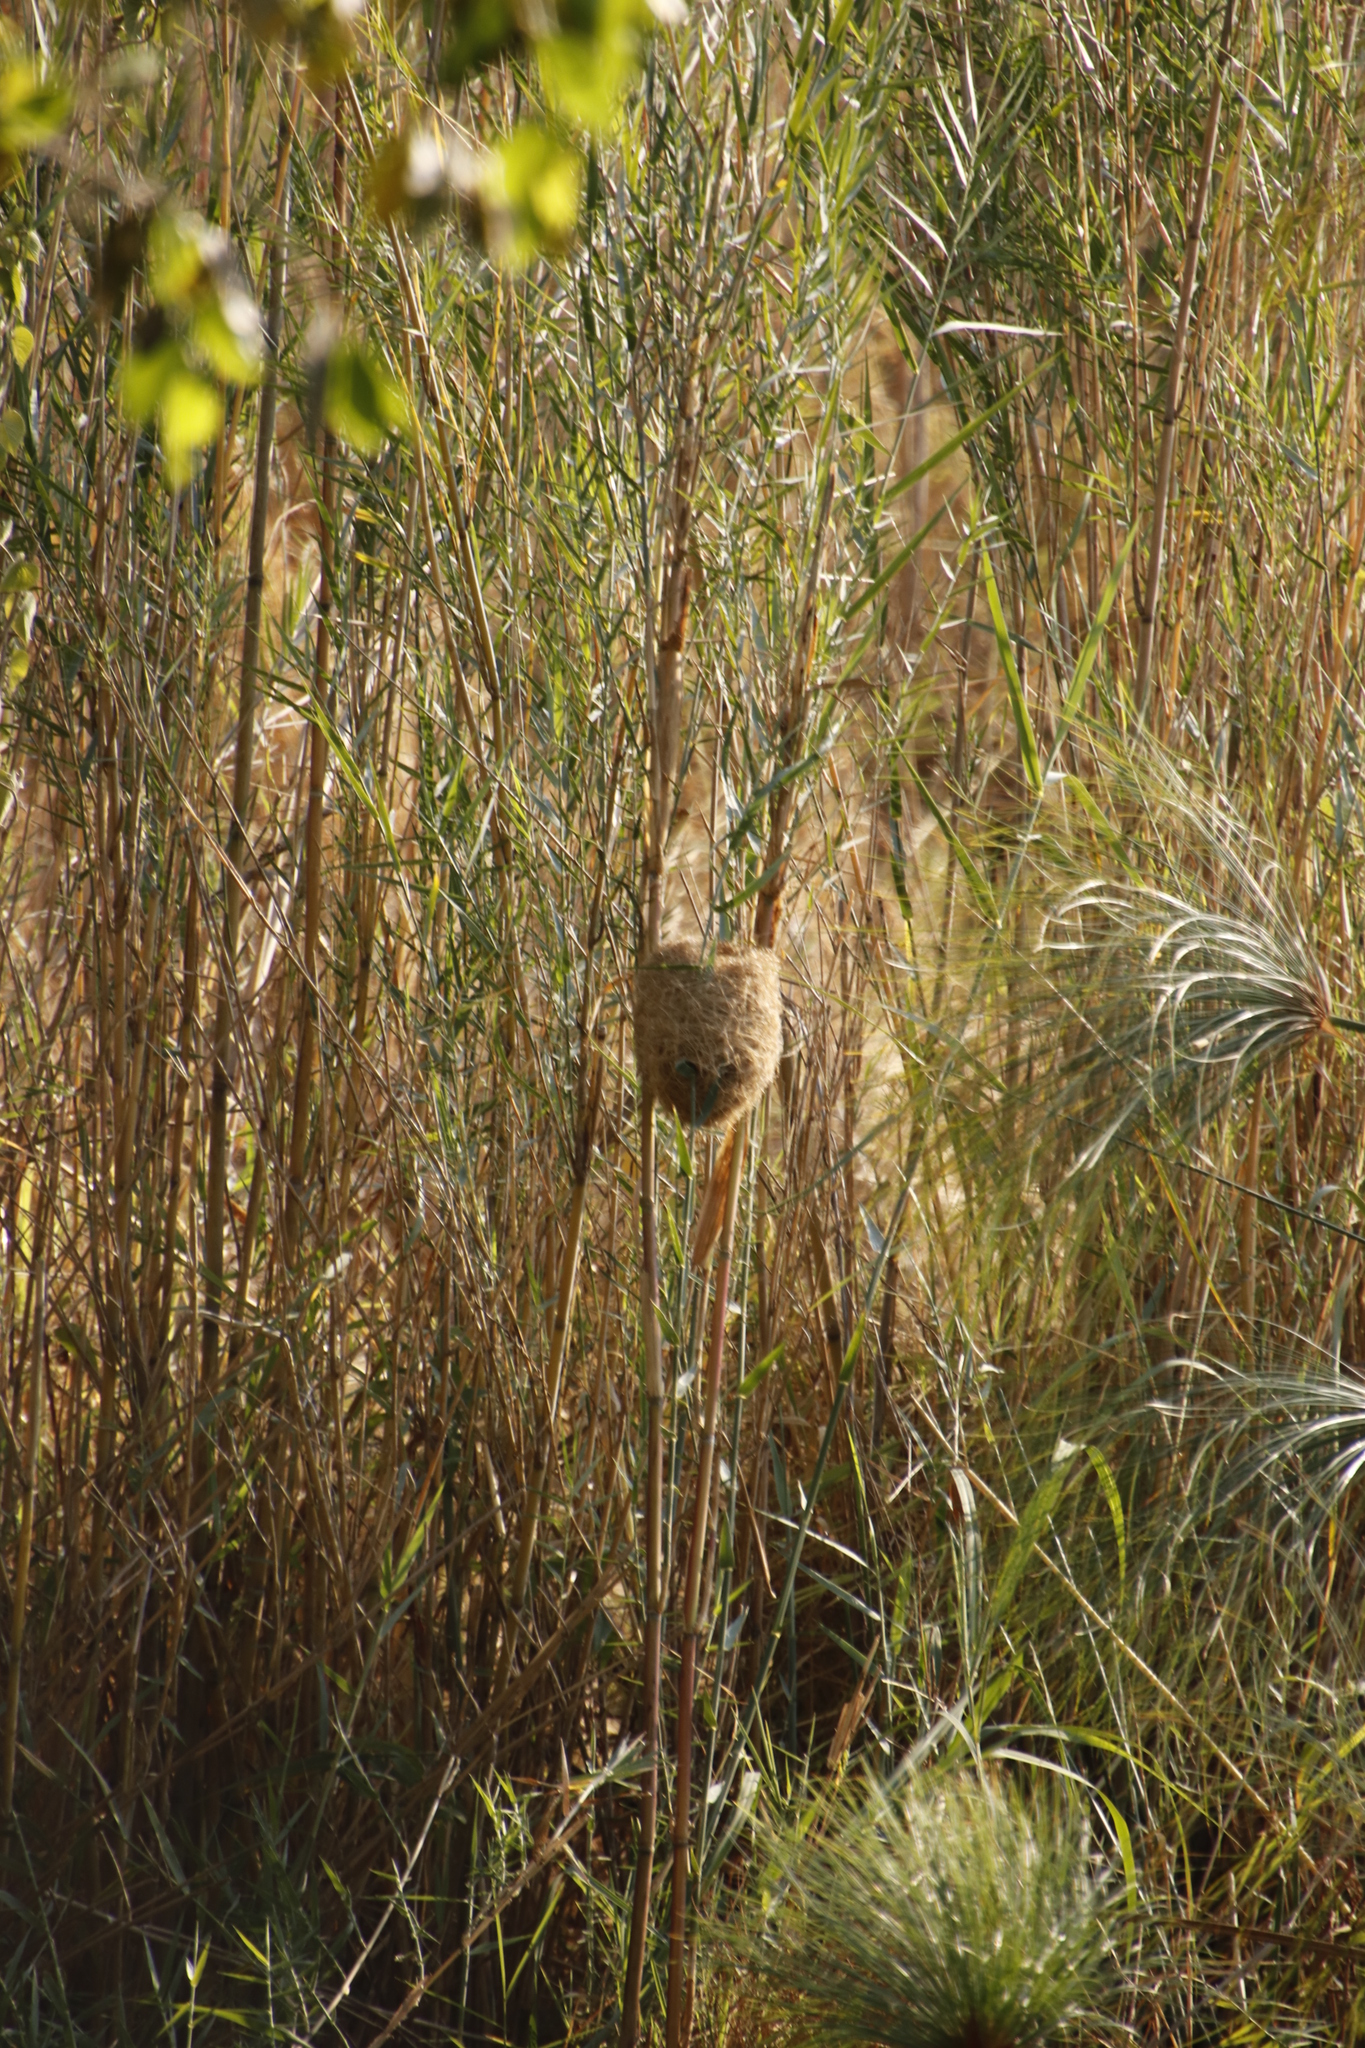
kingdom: Animalia
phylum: Chordata
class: Aves
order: Passeriformes
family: Ploceidae
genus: Amblyospiza
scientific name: Amblyospiza albifrons
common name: Thick-billed weaver
